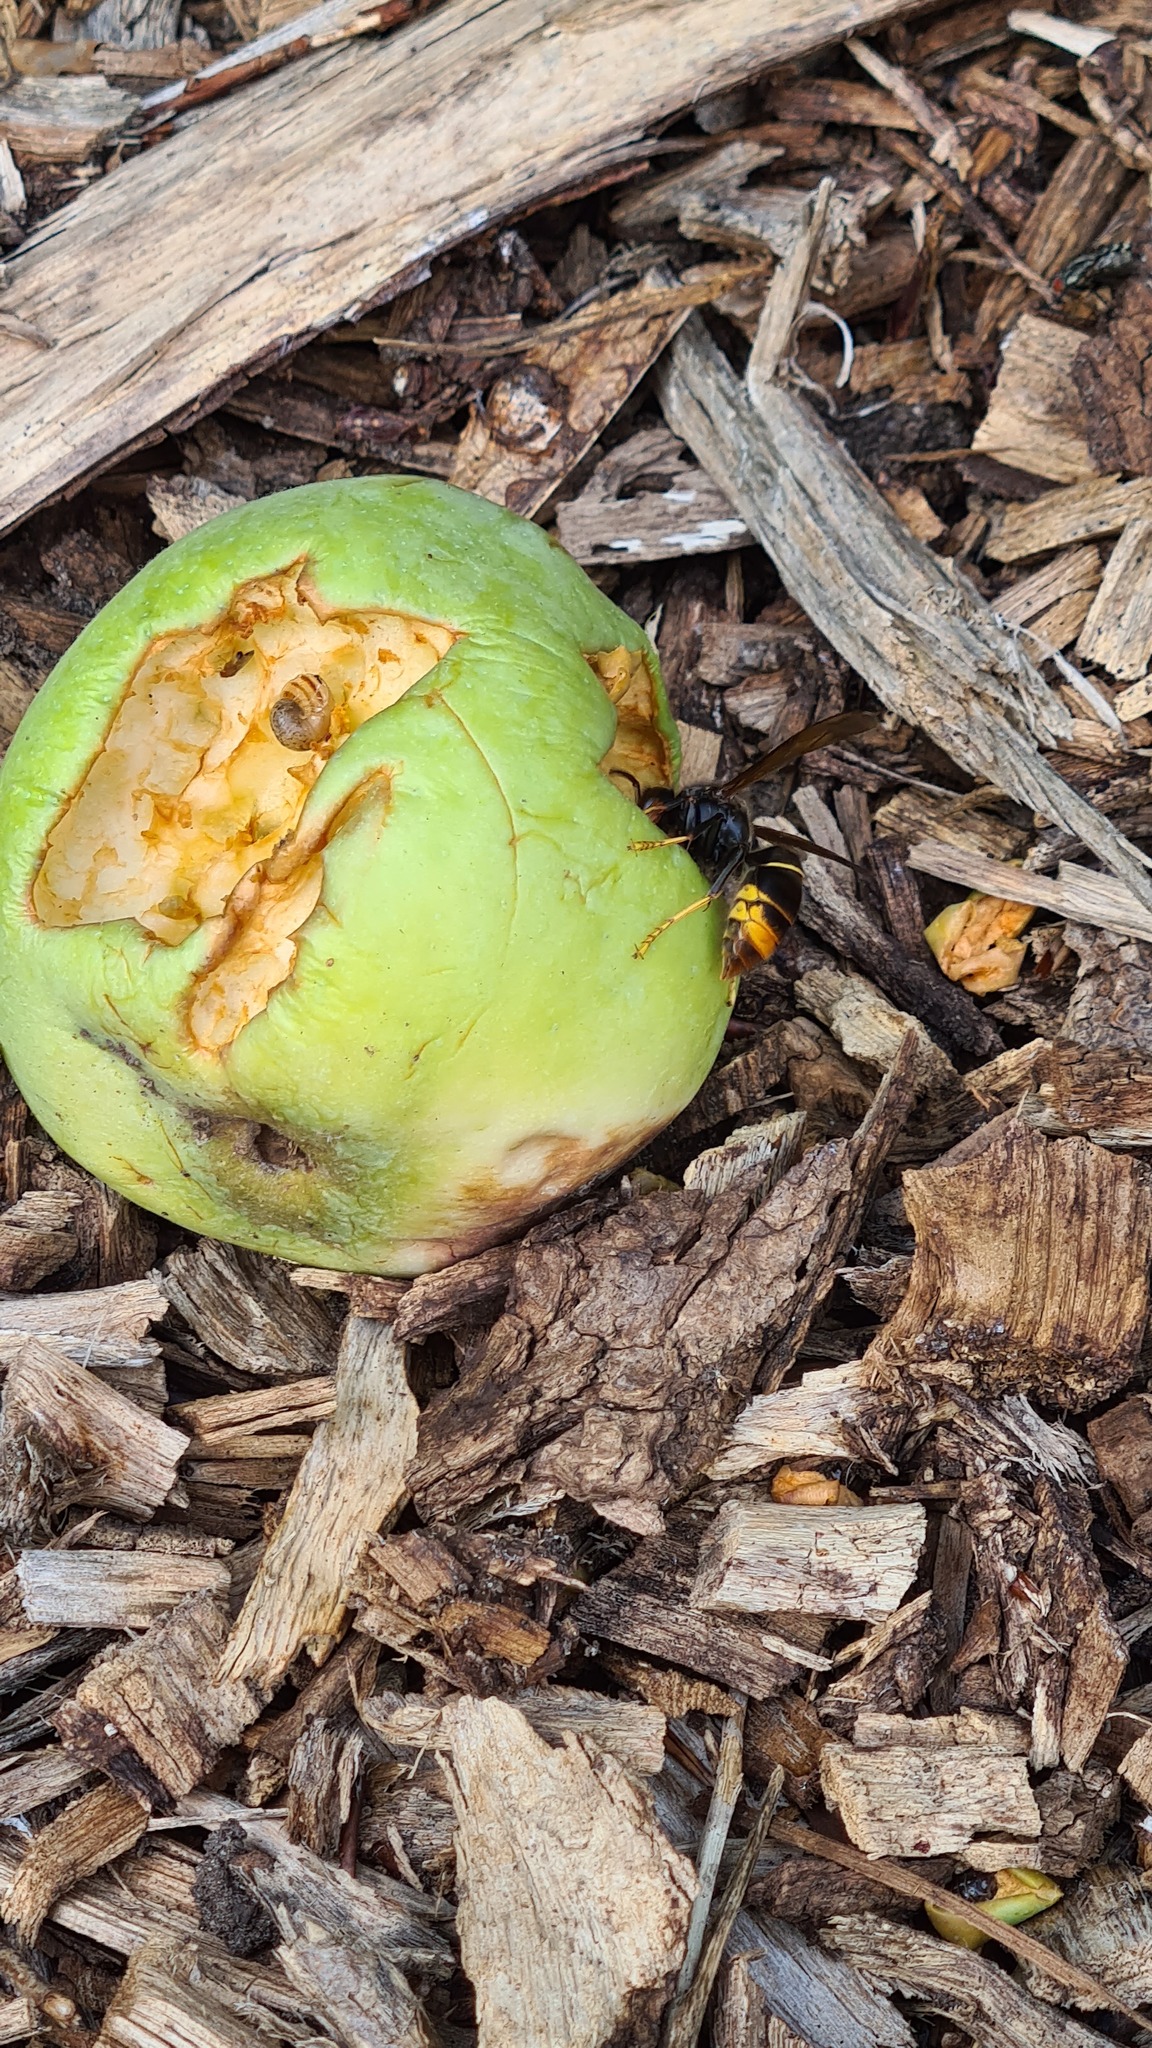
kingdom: Animalia
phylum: Arthropoda
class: Insecta
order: Hymenoptera
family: Vespidae
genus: Vespa
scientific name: Vespa velutina
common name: Asian hornet
